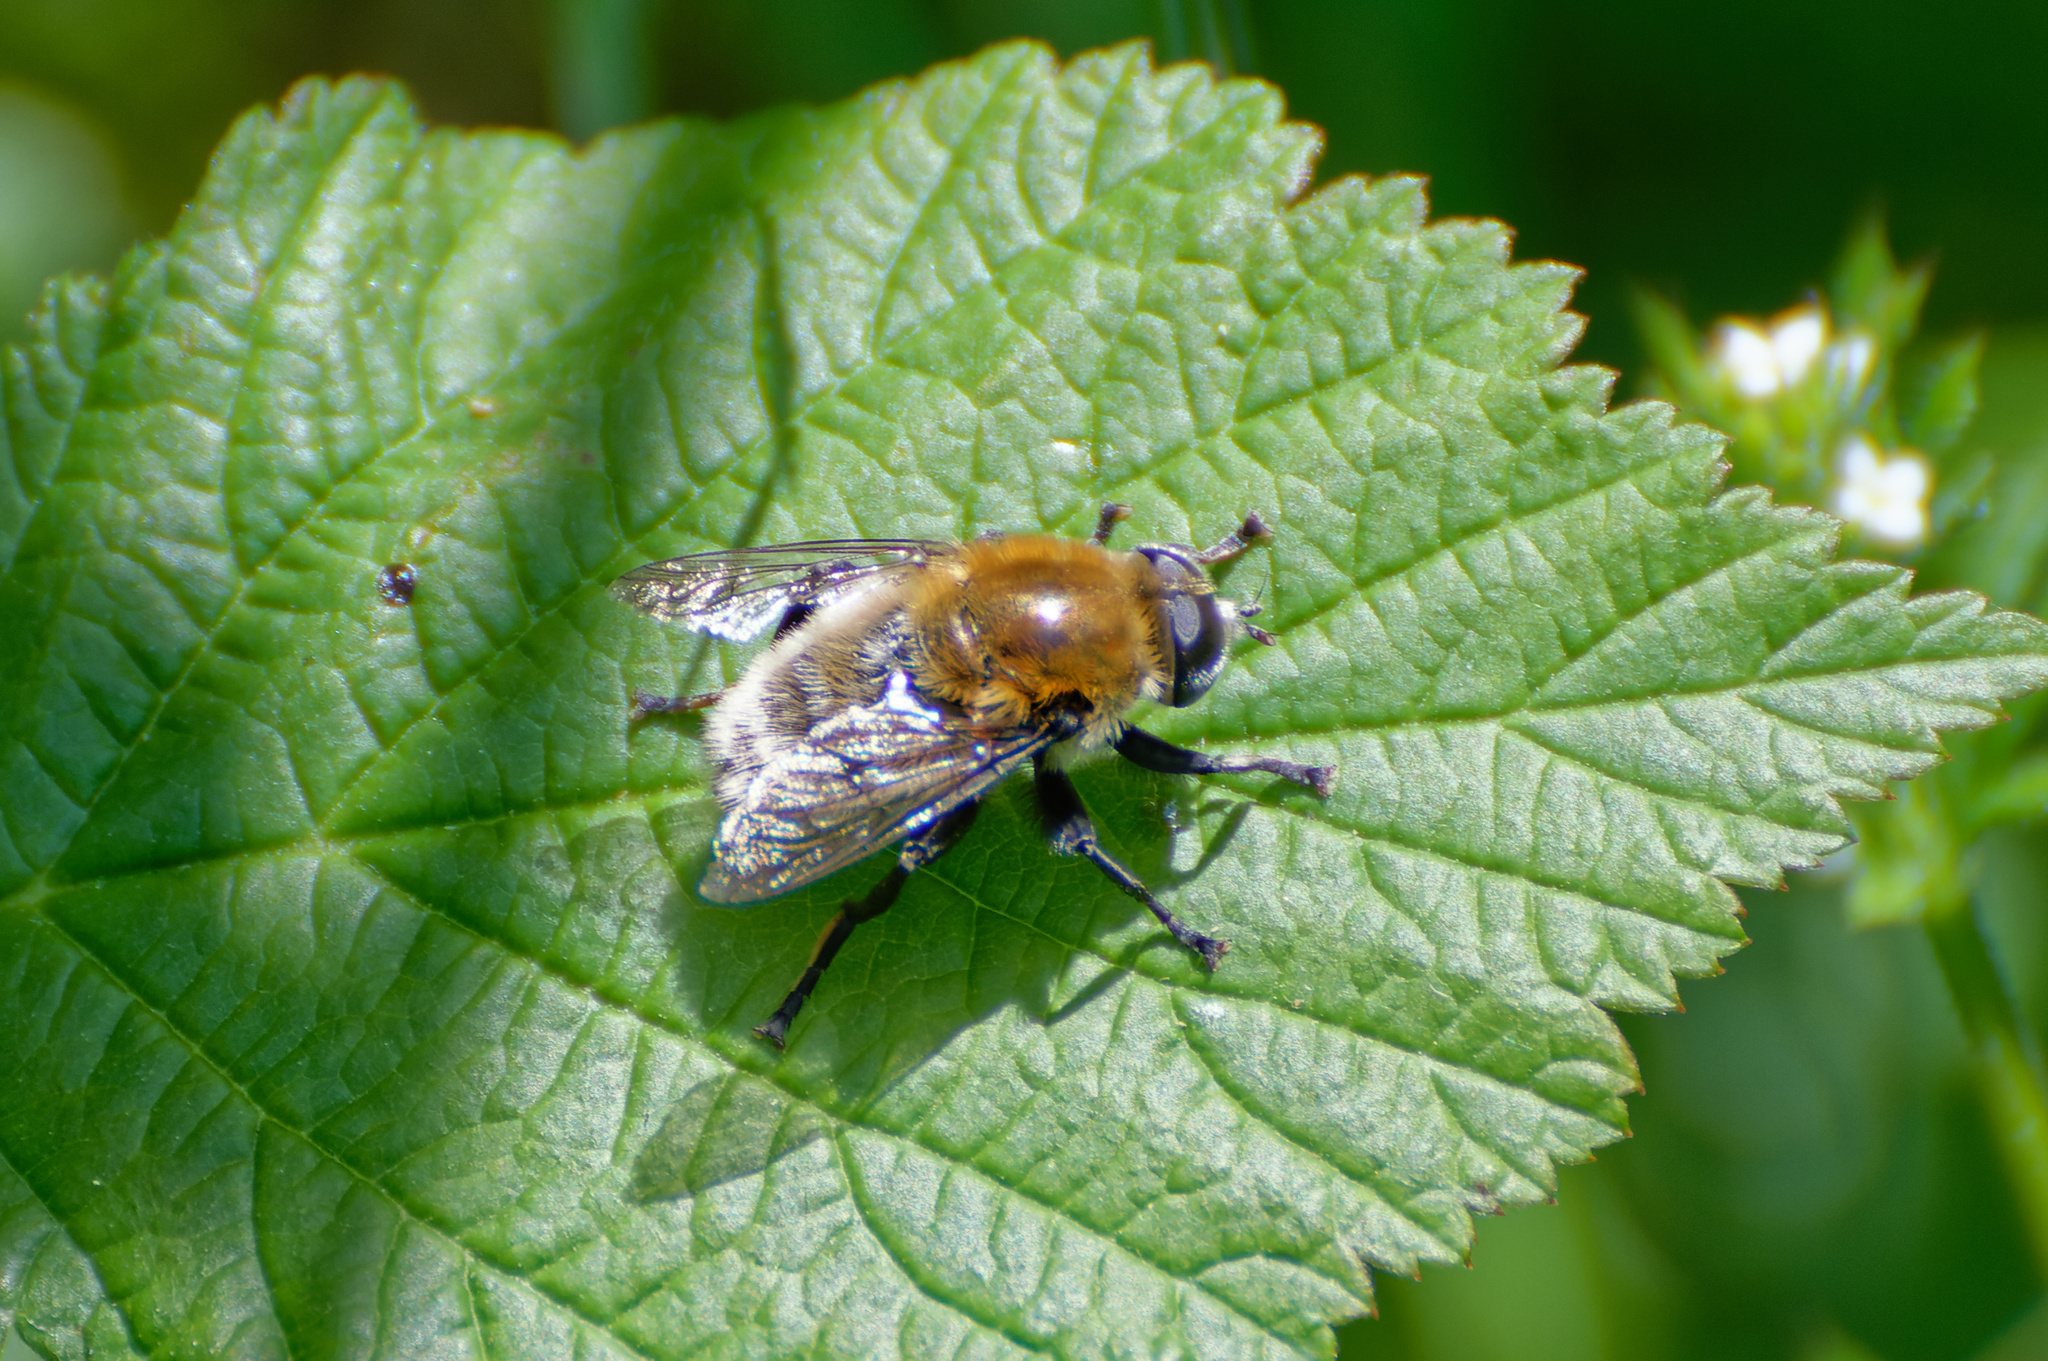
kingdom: Animalia
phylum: Arthropoda
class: Insecta
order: Diptera
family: Syrphidae
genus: Merodon
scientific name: Merodon equestris
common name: Greater bulb-fly
